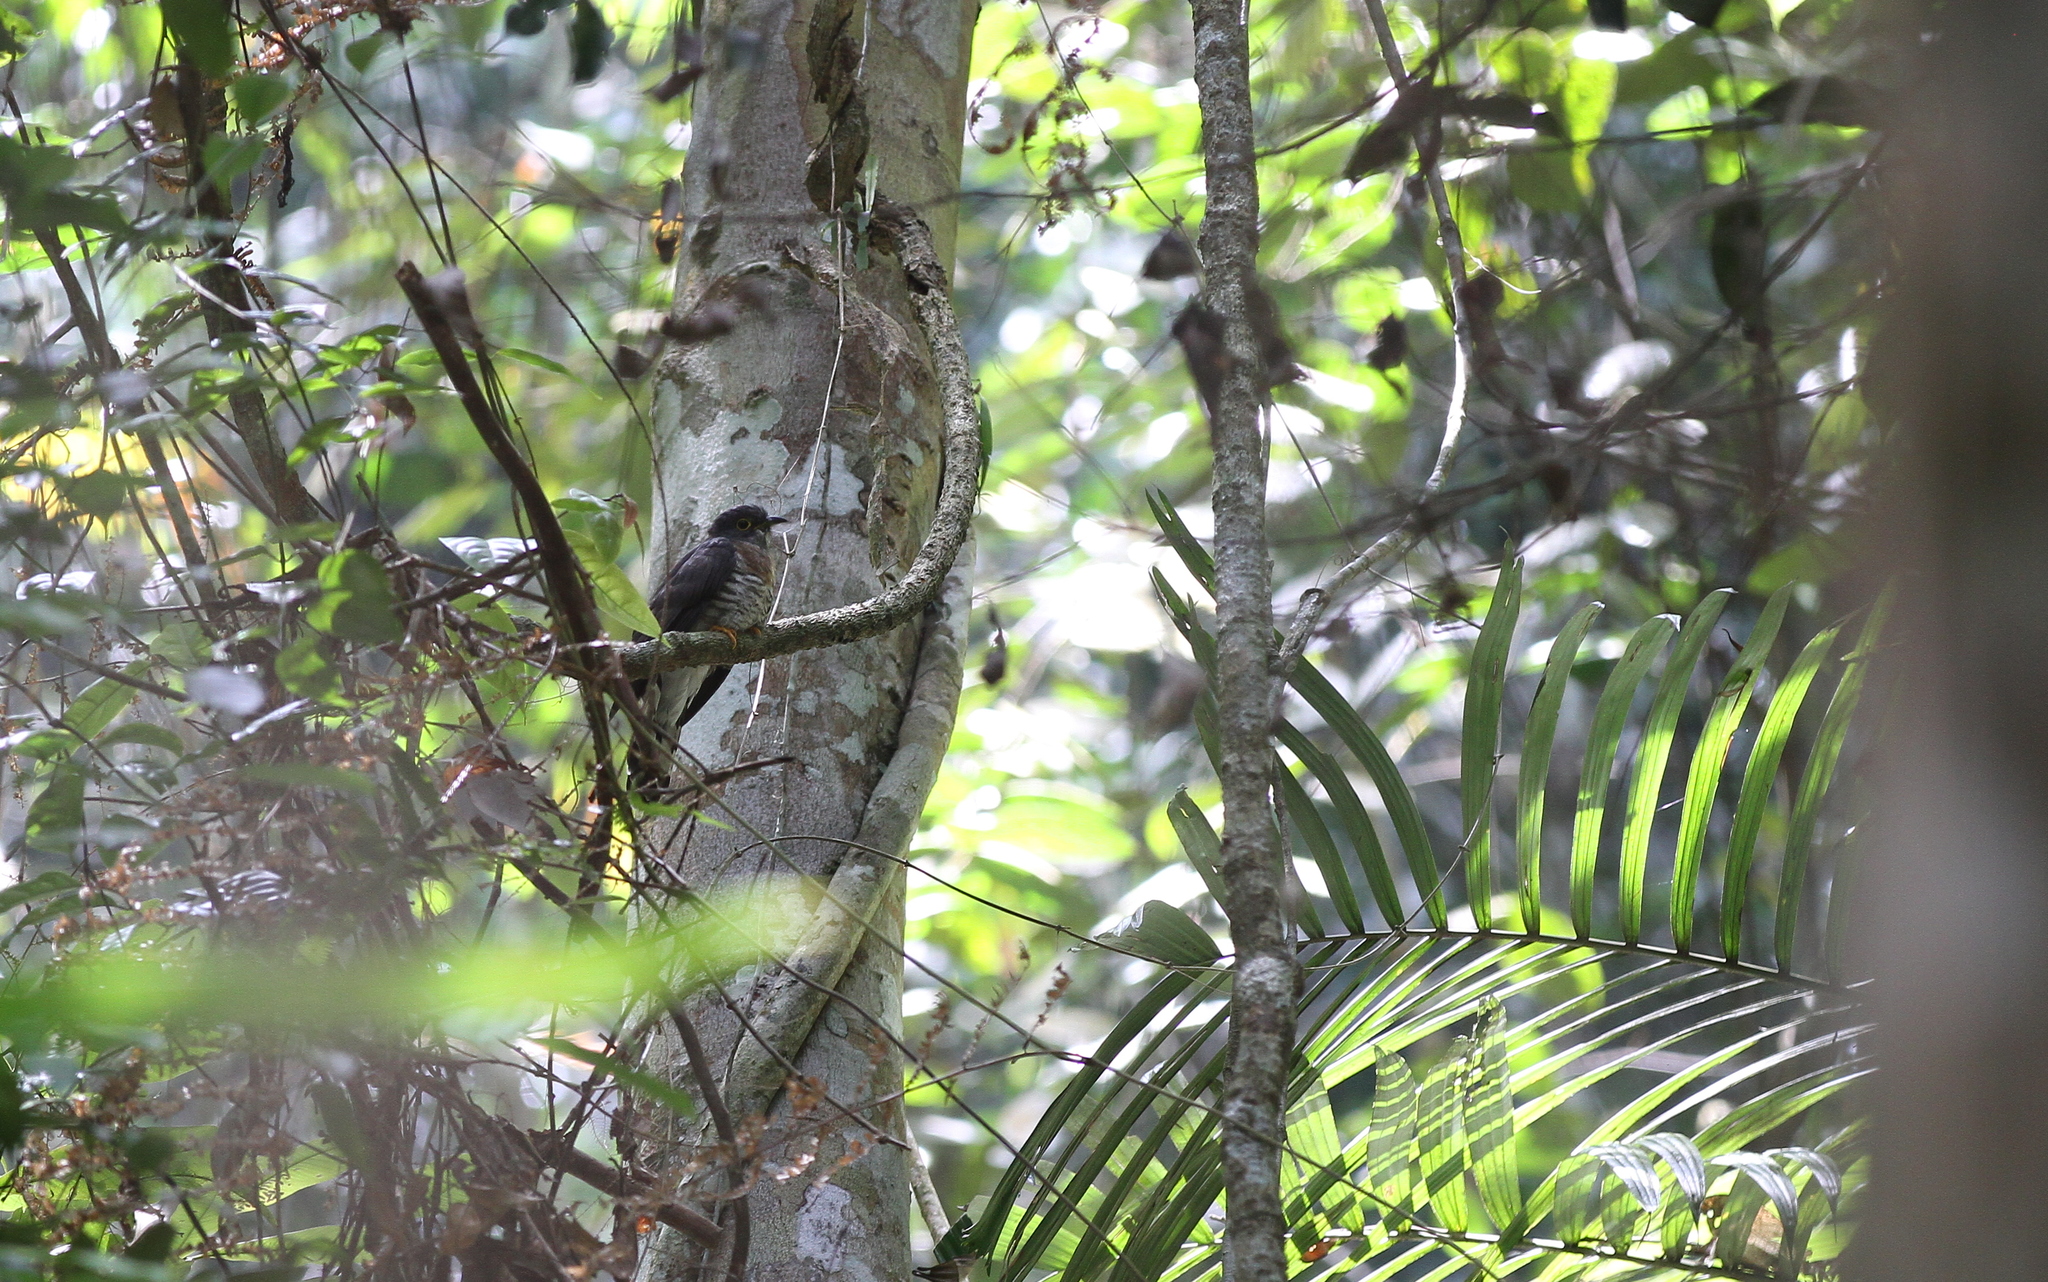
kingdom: Animalia
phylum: Chordata
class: Aves
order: Cuculiformes
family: Cuculidae
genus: Cuculus
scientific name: Cuculus sparverioides
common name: Large hawk cuckoo
